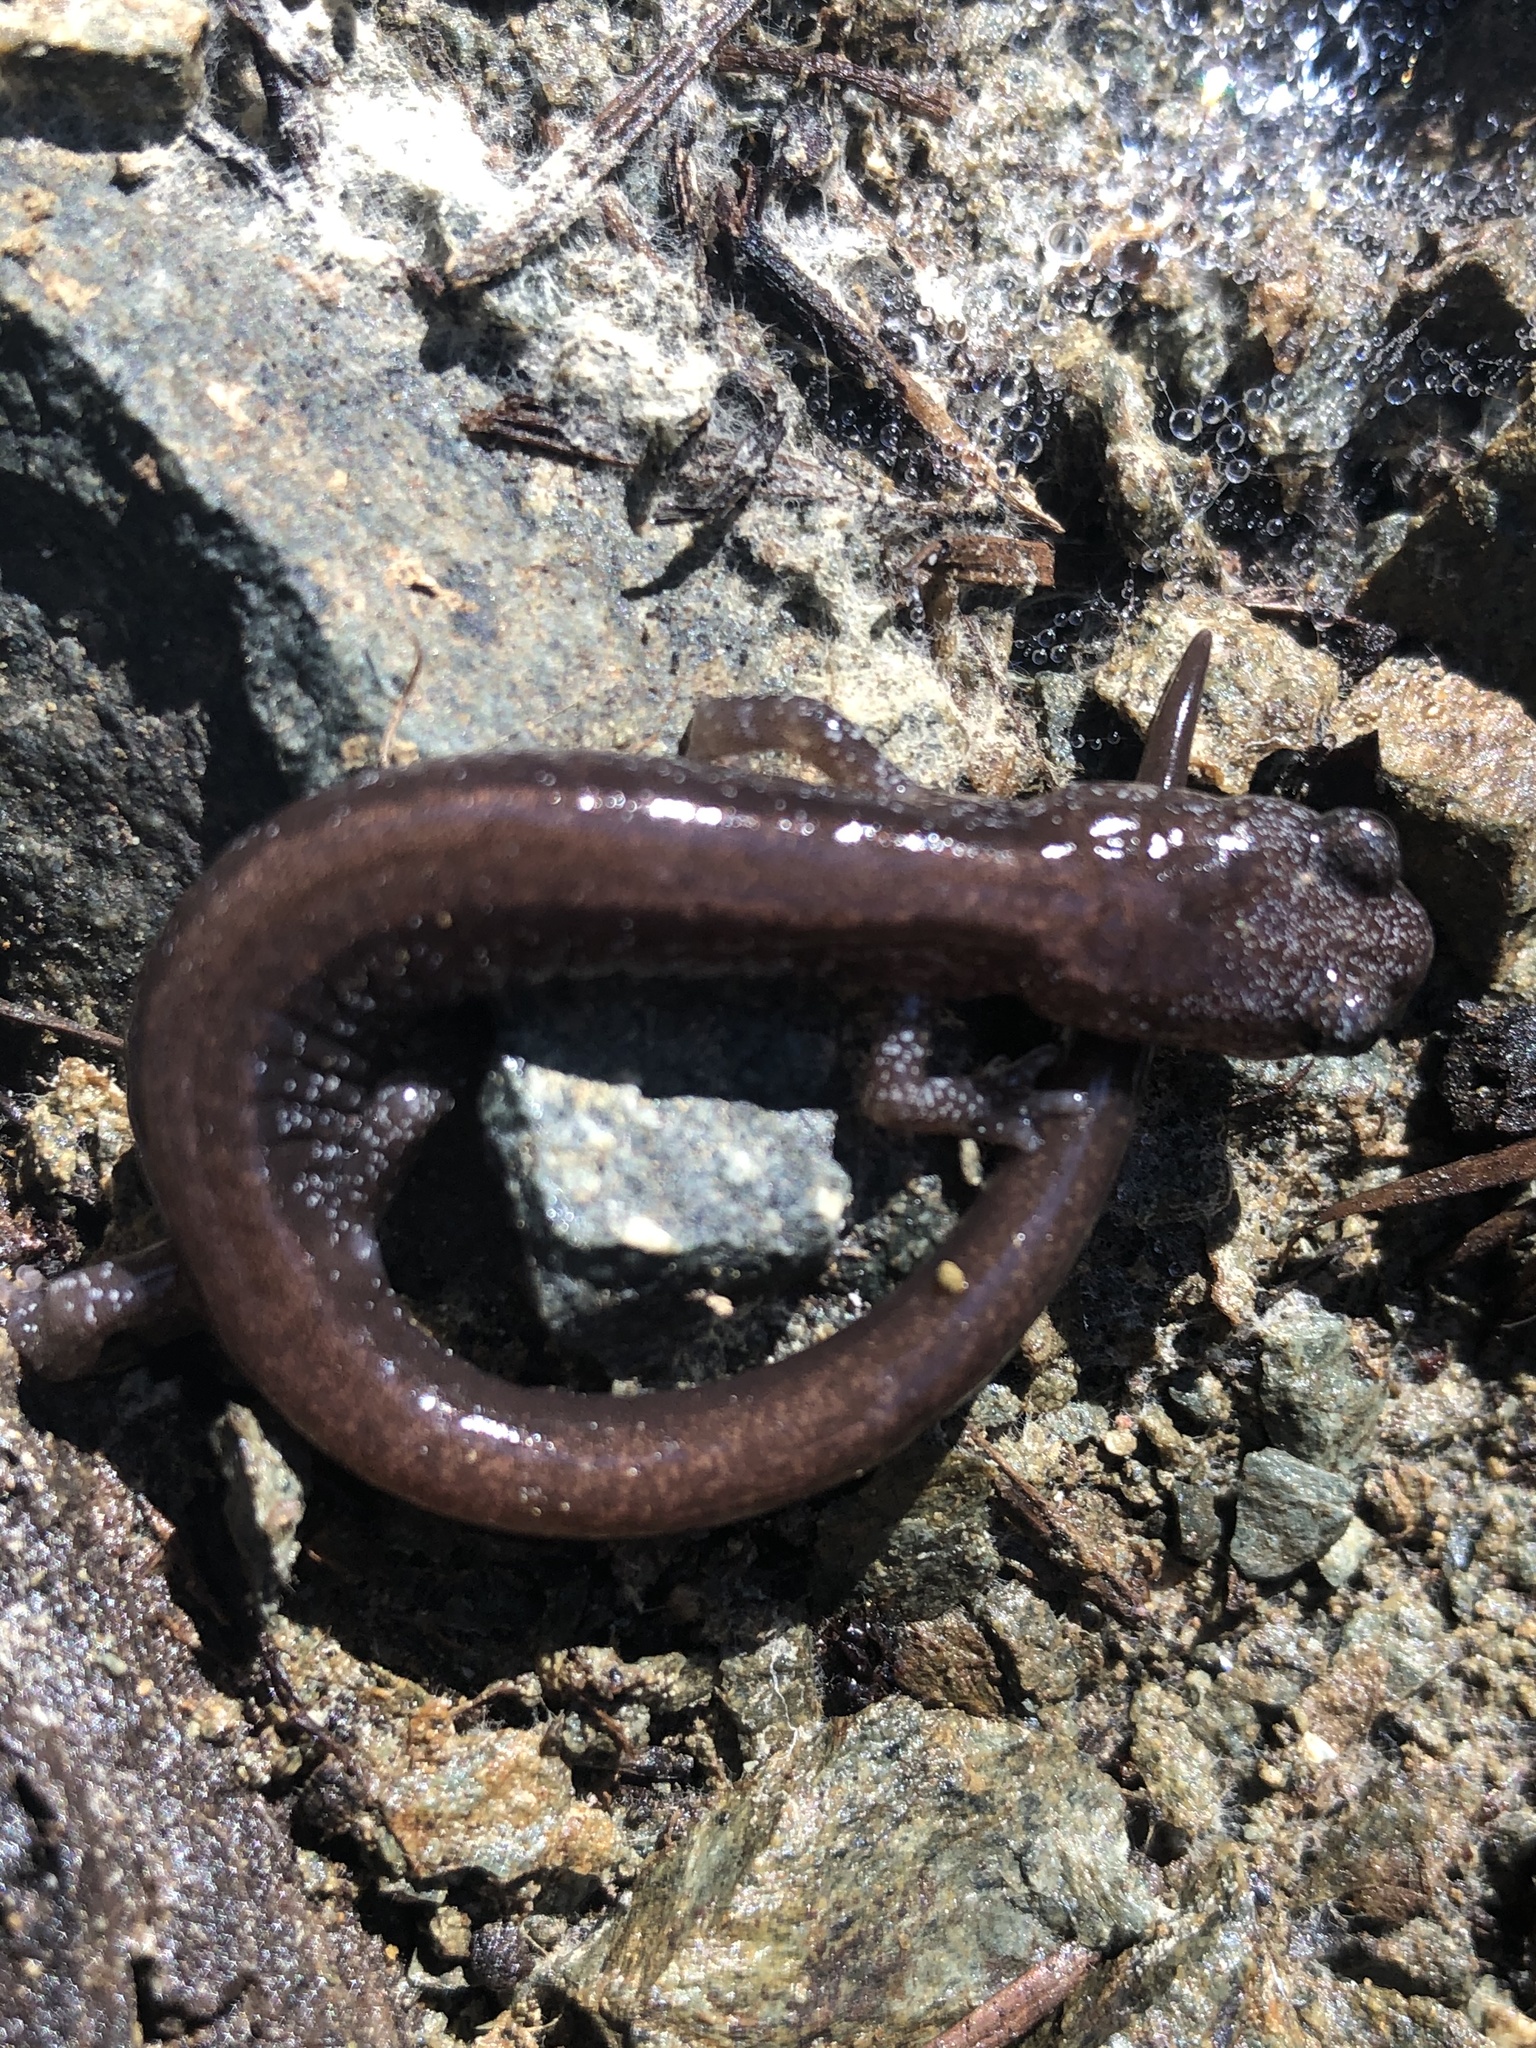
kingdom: Animalia
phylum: Chordata
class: Amphibia
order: Caudata
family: Plethodontidae
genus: Plethodon
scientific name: Plethodon stormi
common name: Siskiyou mountains salamander
